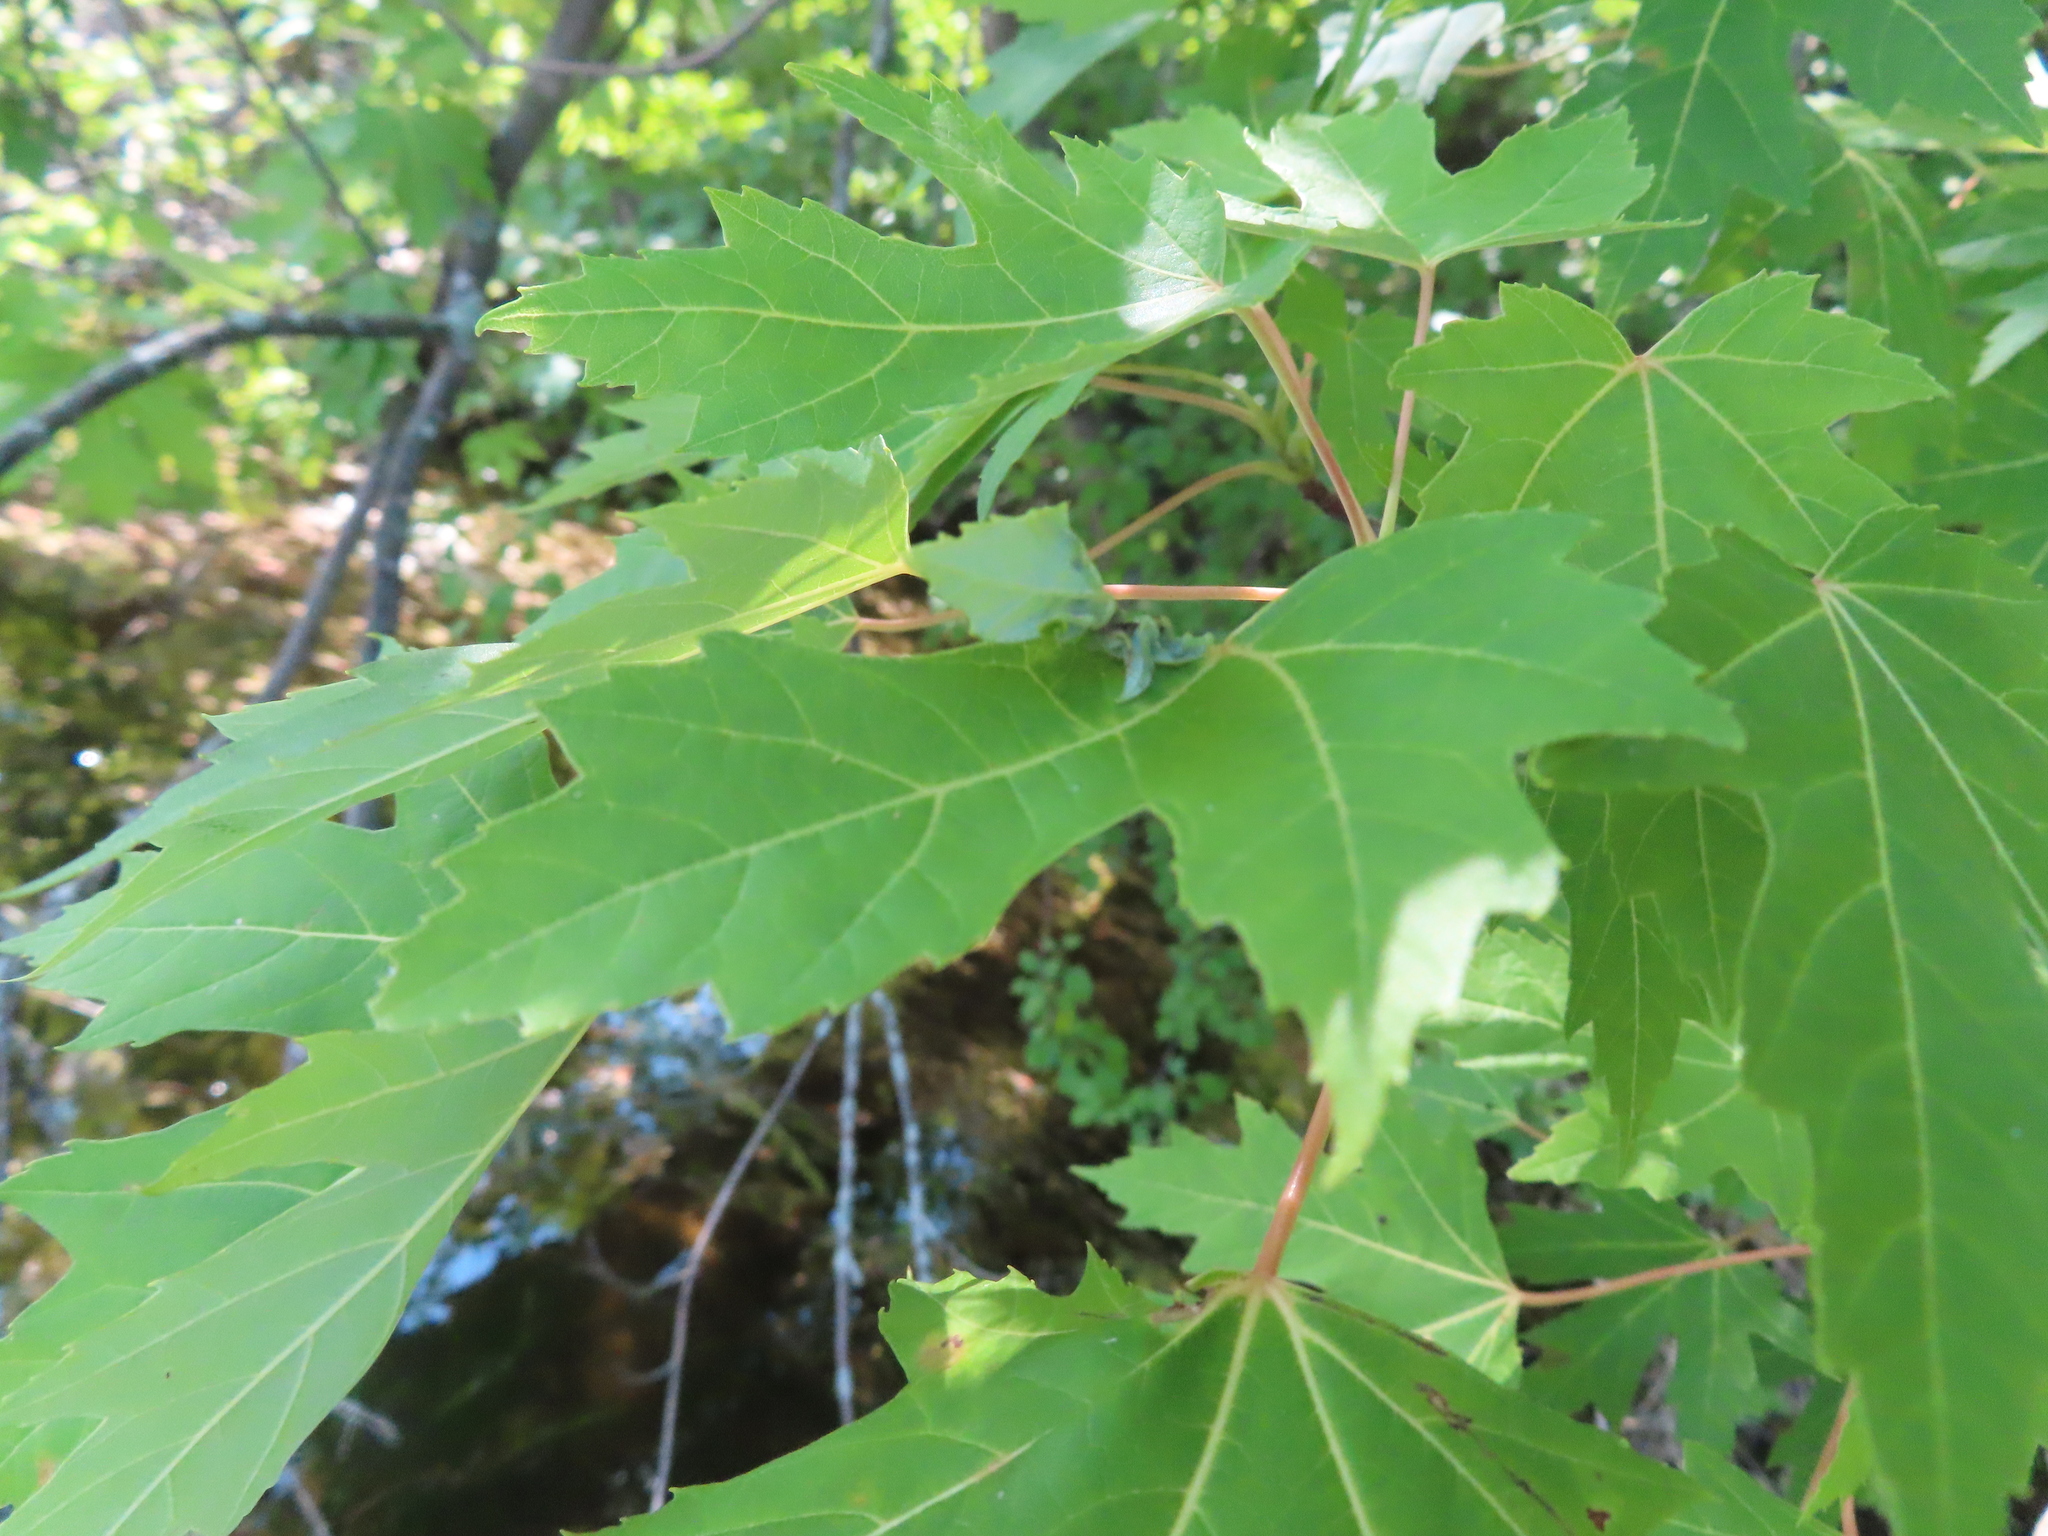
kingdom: Animalia
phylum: Arthropoda
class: Insecta
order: Diptera
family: Cecidomyiidae
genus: Dasineura
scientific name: Dasineura aceris
